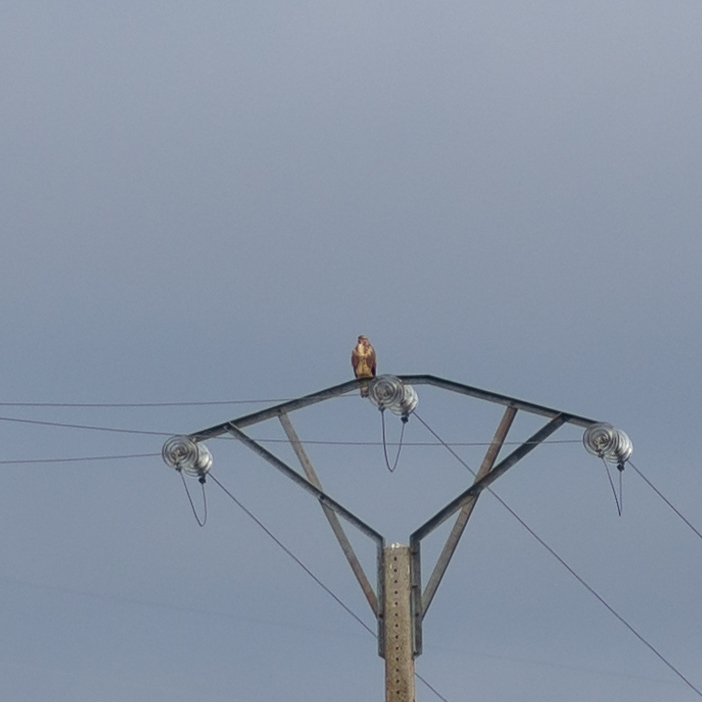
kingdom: Animalia
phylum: Chordata
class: Aves
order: Accipitriformes
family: Accipitridae
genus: Buteo
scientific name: Buteo buteo
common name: Common buzzard
